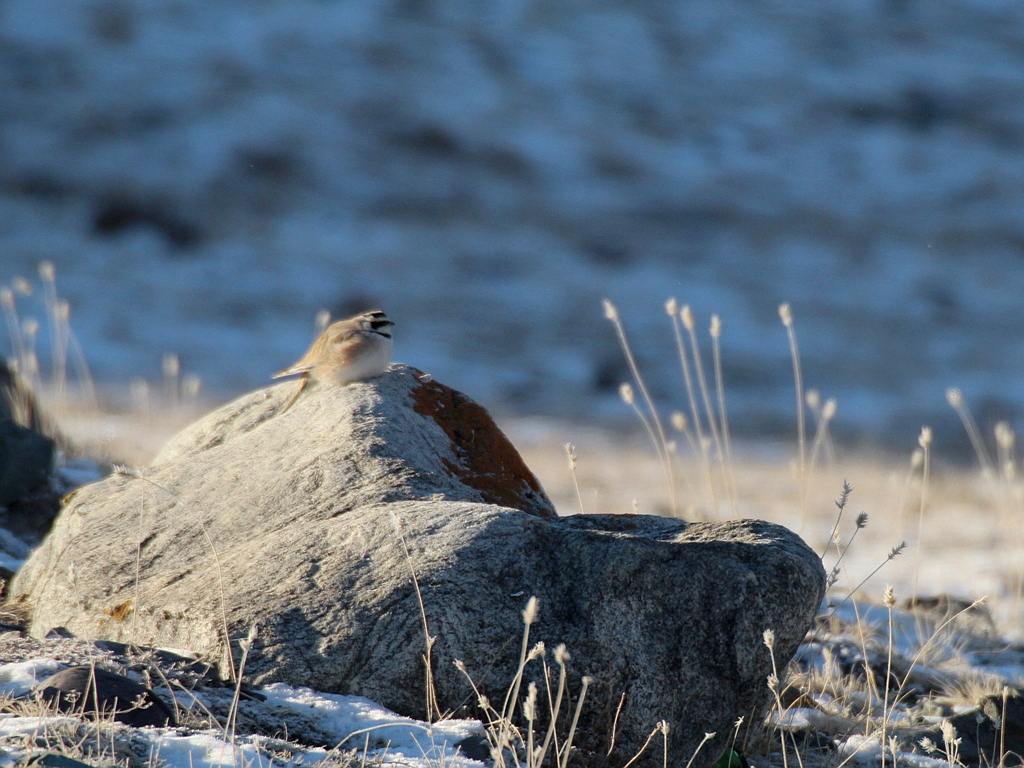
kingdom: Animalia
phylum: Chordata
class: Aves
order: Passeriformes
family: Alaudidae
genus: Eremophila
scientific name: Eremophila alpestris
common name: Horned lark
